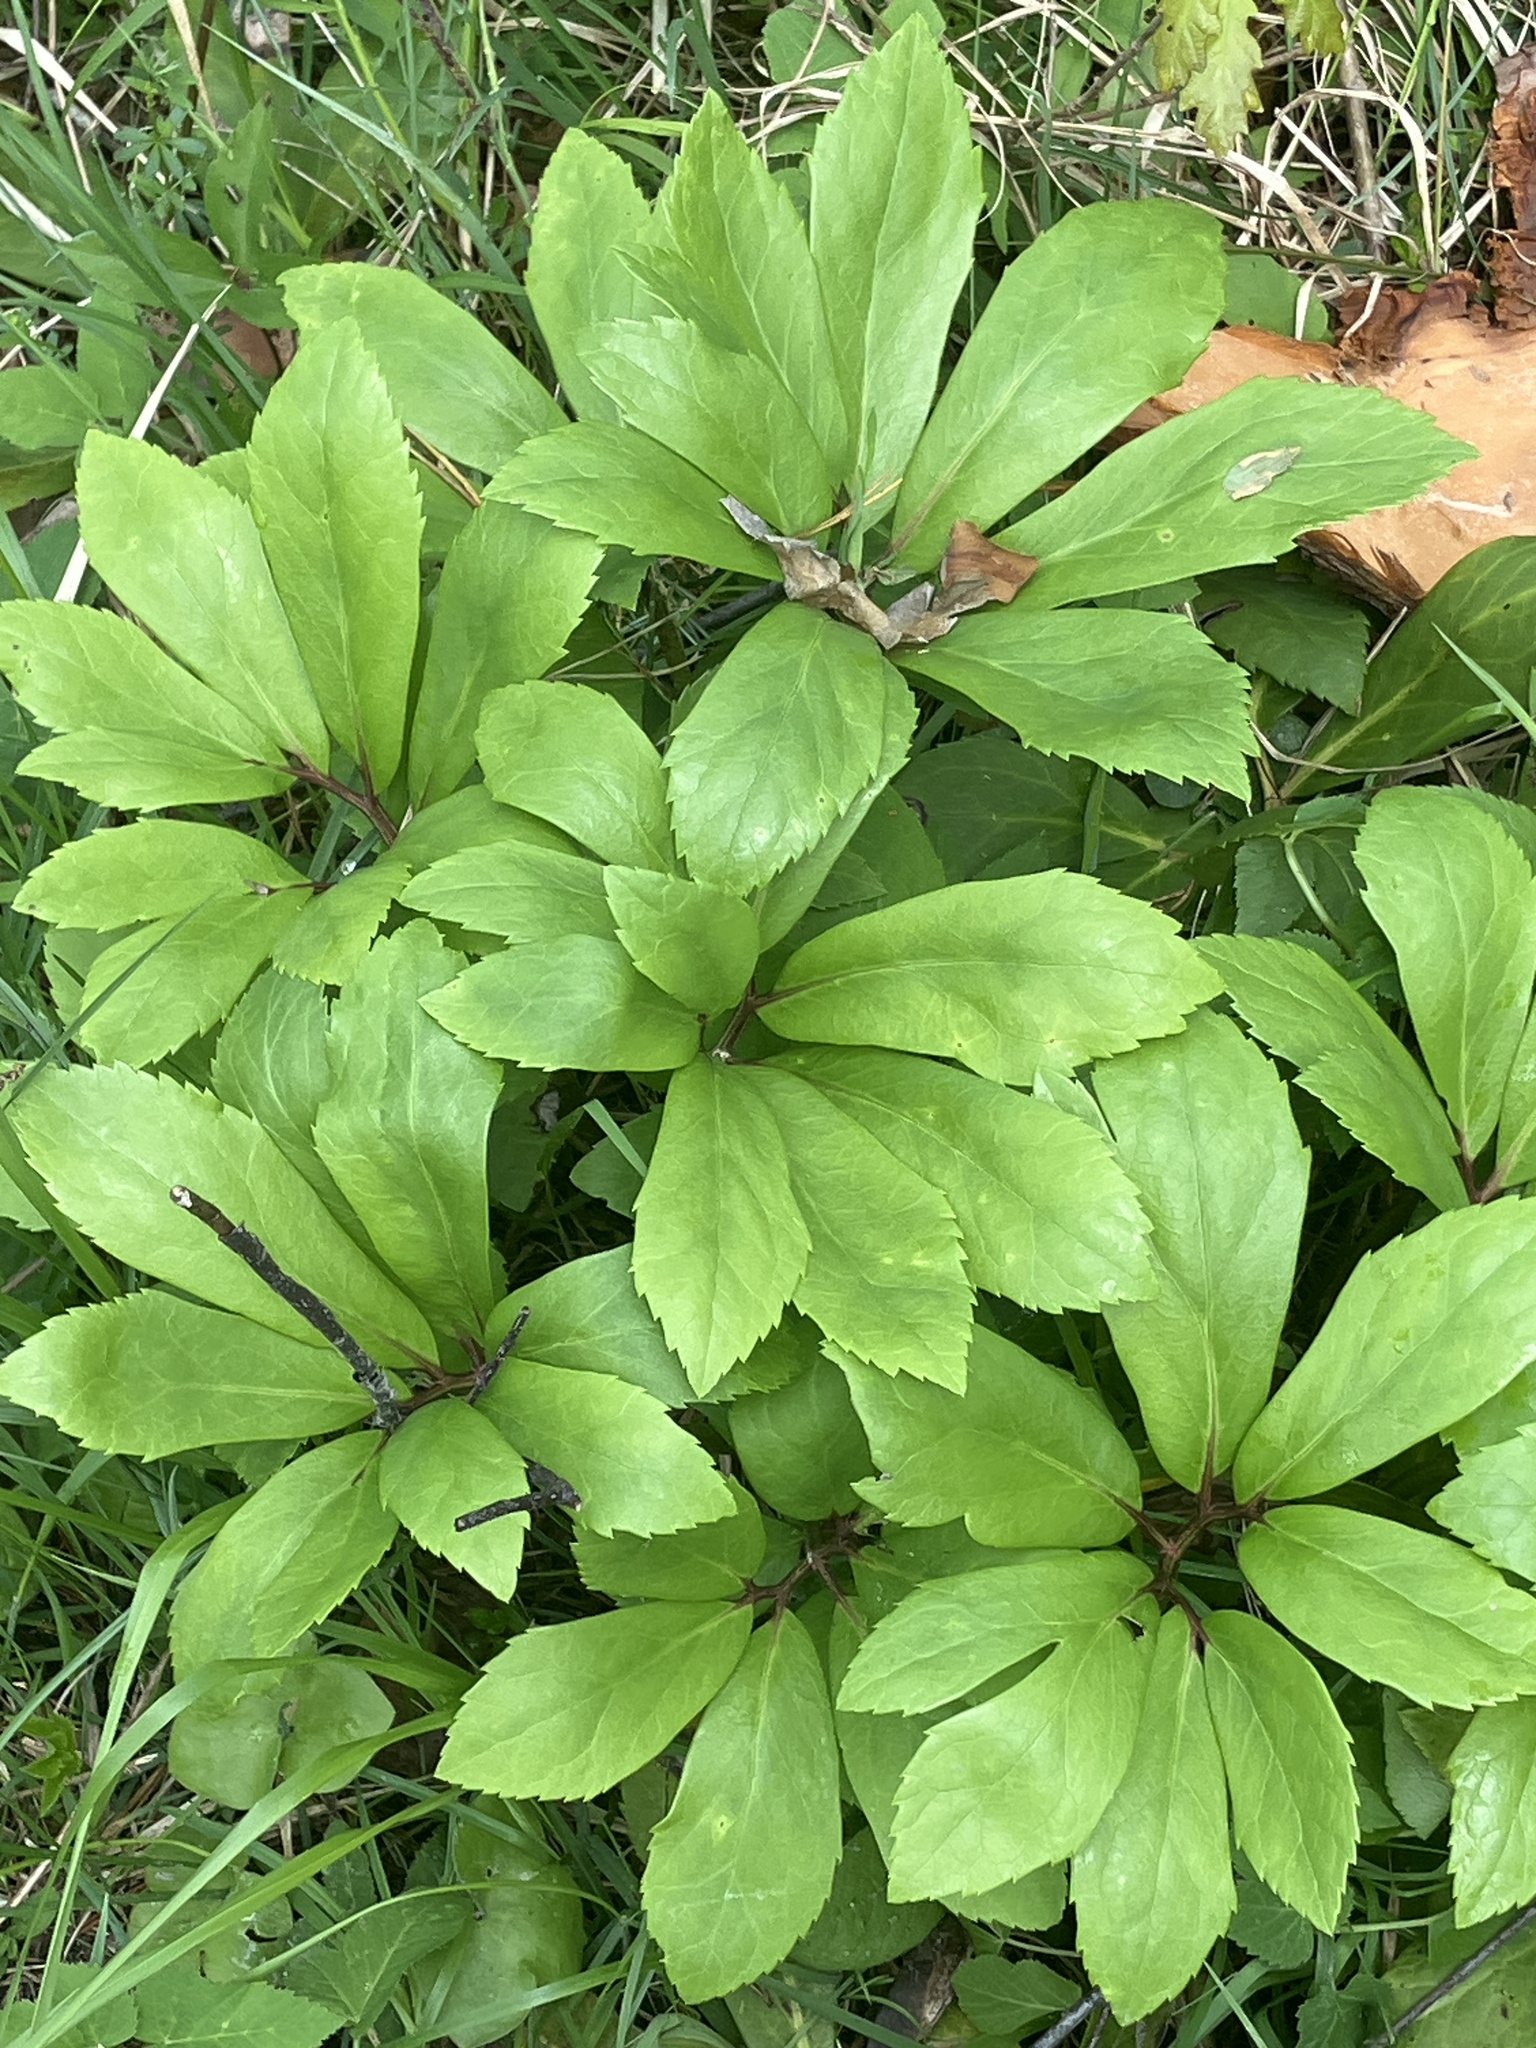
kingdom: Plantae
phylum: Tracheophyta
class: Magnoliopsida
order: Ranunculales
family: Ranunculaceae
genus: Helleborus
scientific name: Helleborus niger
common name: Black hellebore
